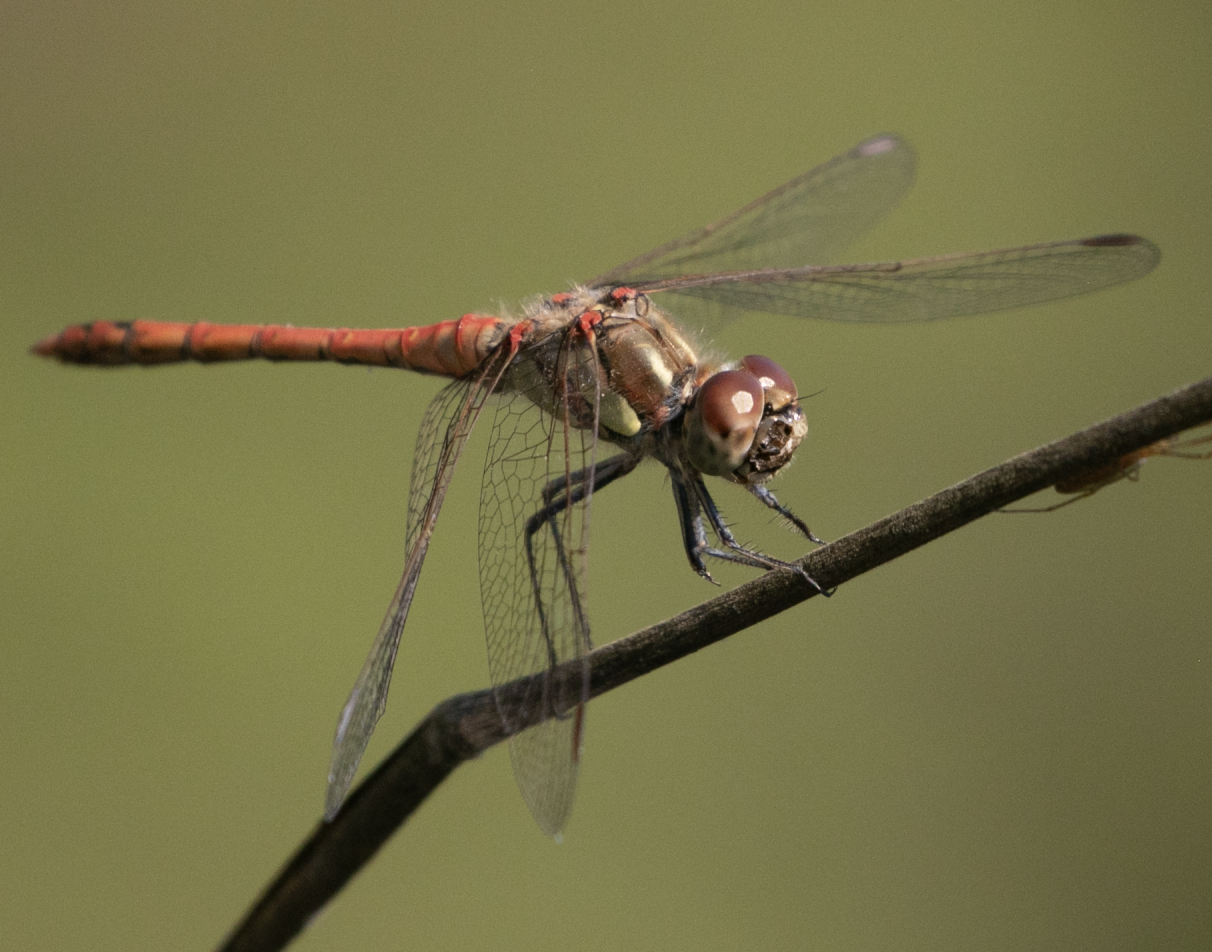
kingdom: Animalia
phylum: Arthropoda
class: Insecta
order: Odonata
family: Libellulidae
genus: Sympetrum
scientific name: Sympetrum striolatum
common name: Common darter
